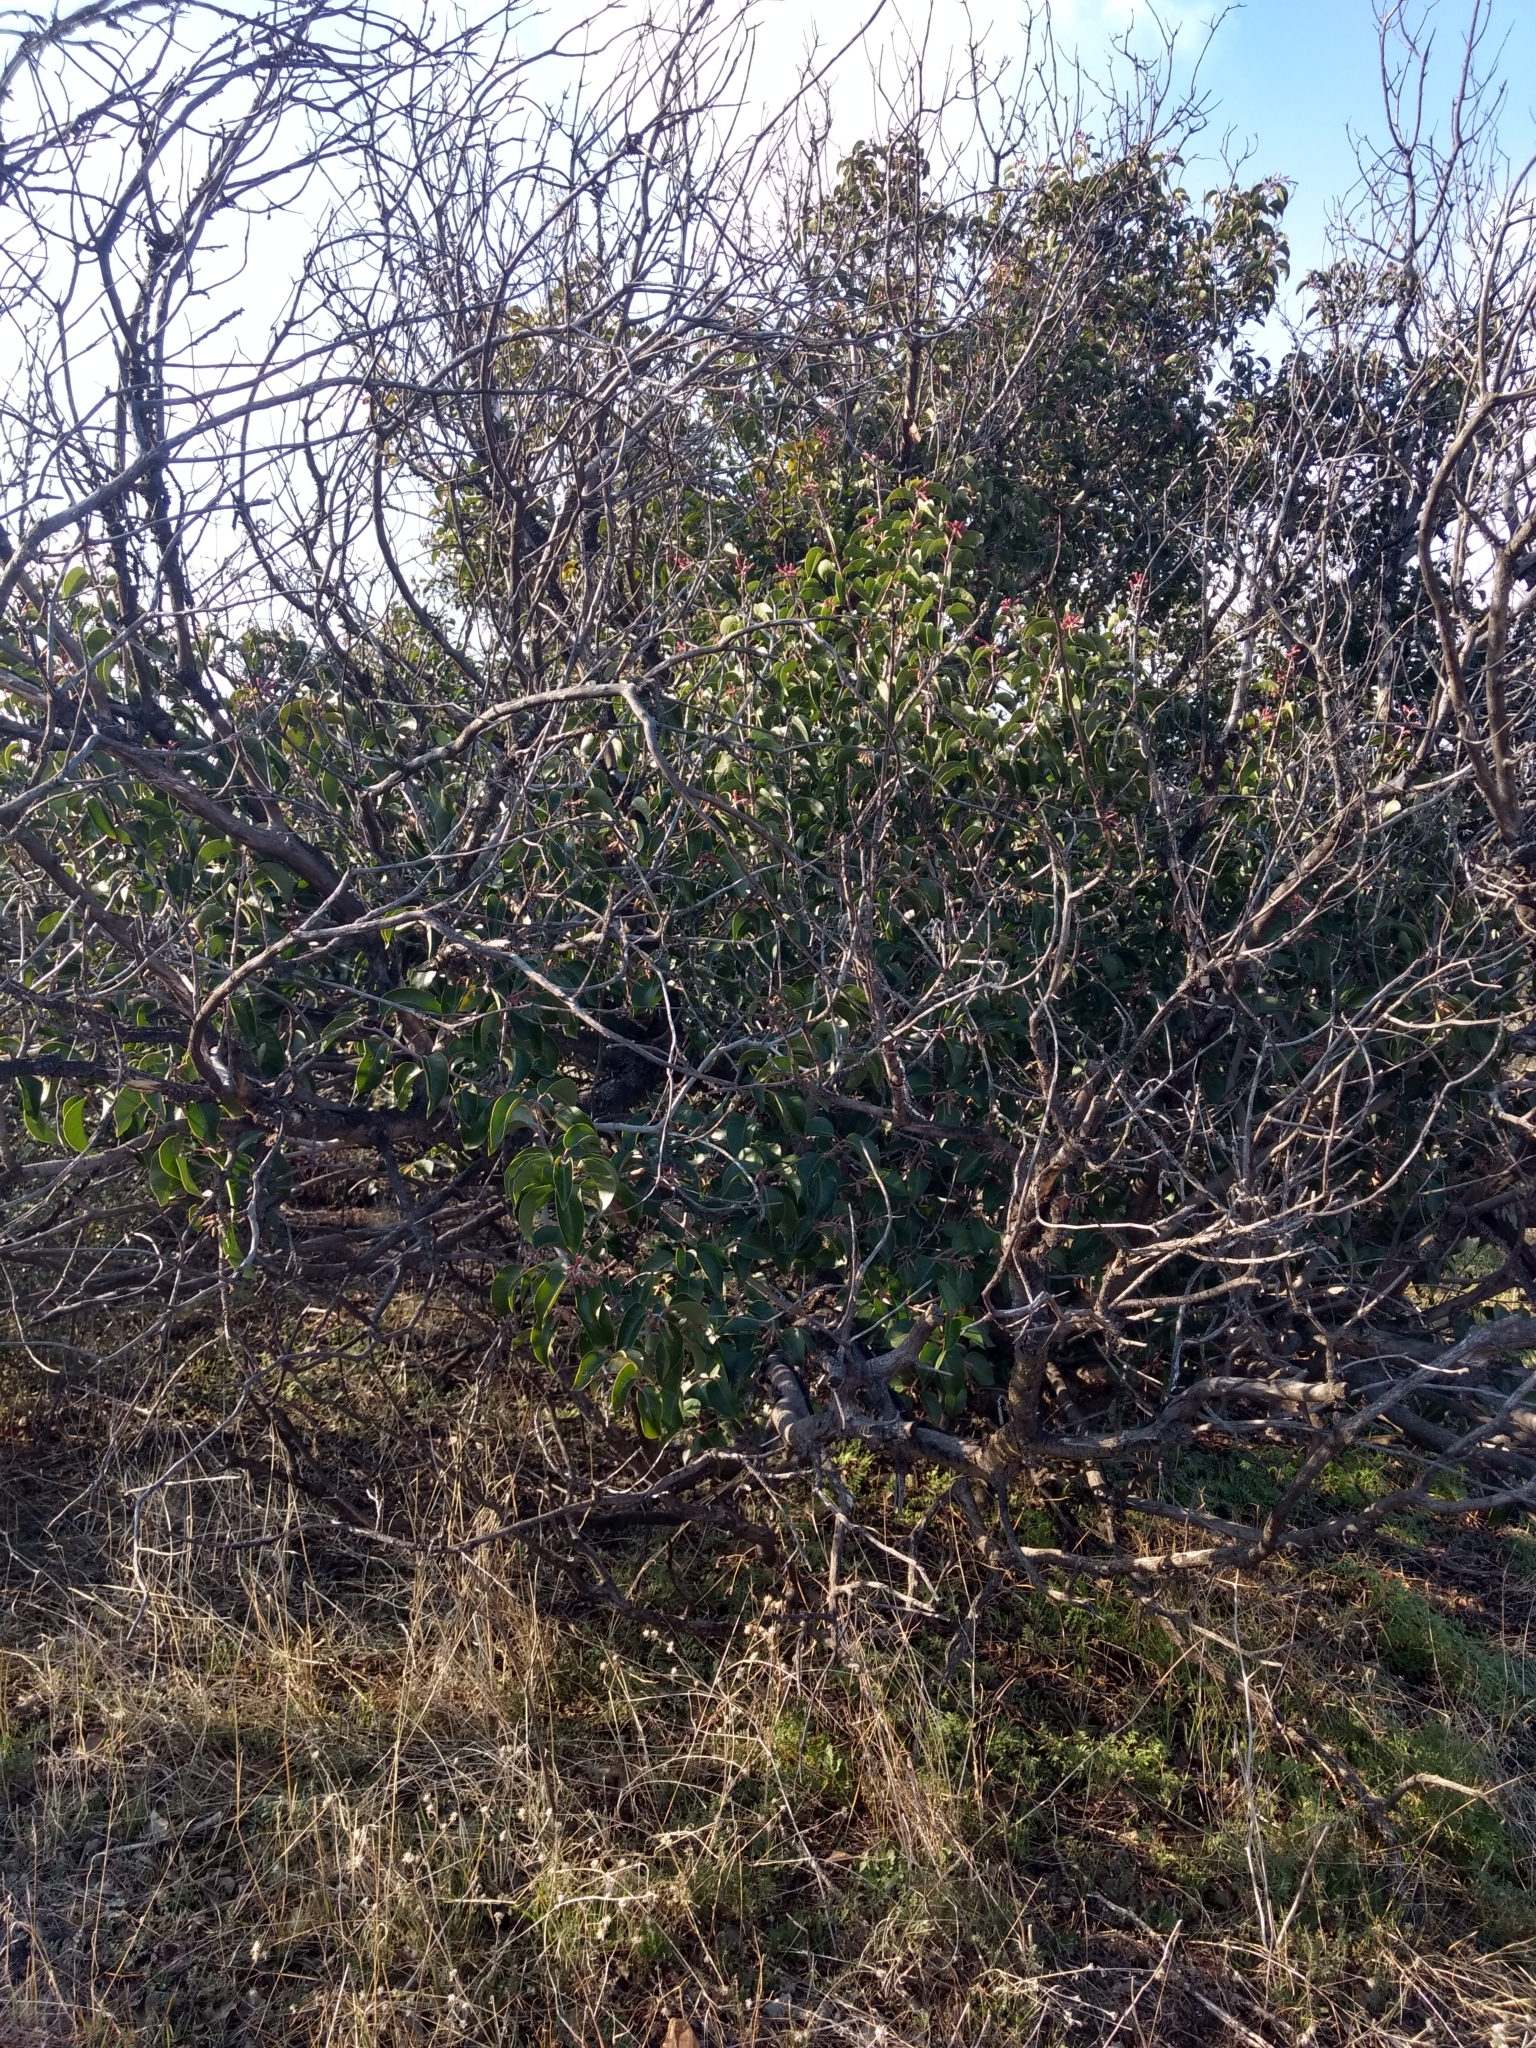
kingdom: Plantae
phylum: Tracheophyta
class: Magnoliopsida
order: Sapindales
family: Anacardiaceae
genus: Rhus
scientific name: Rhus ovata
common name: Sugar sumac
